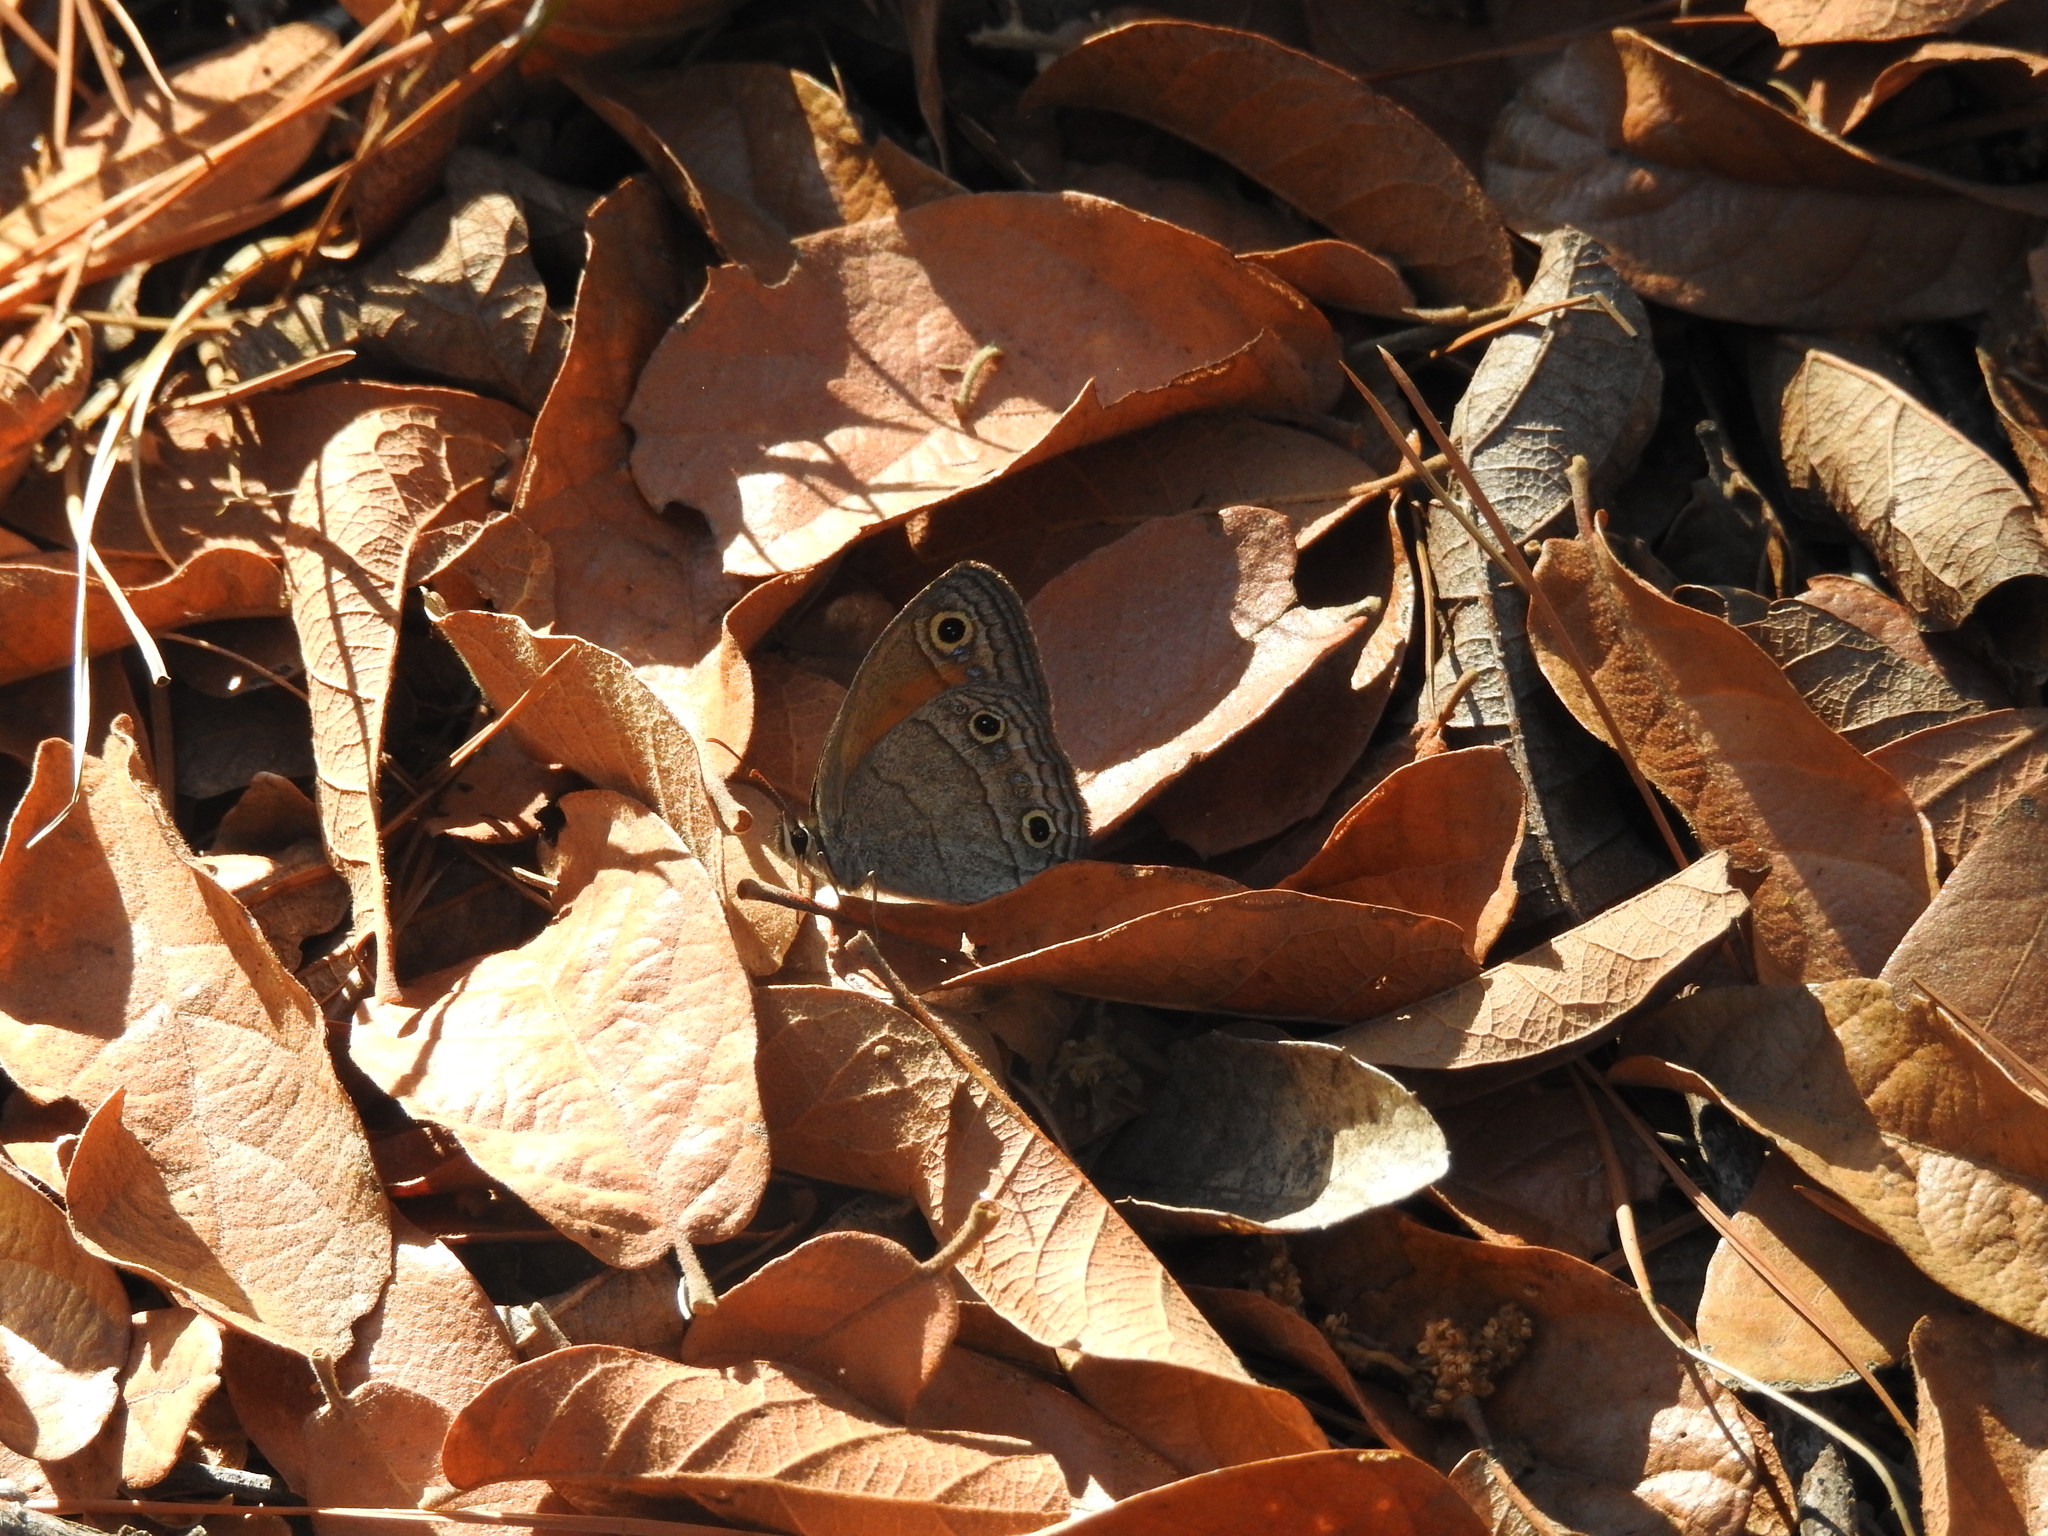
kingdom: Animalia
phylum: Arthropoda
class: Insecta
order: Lepidoptera
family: Nymphalidae
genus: Euptychia
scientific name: Euptychia
